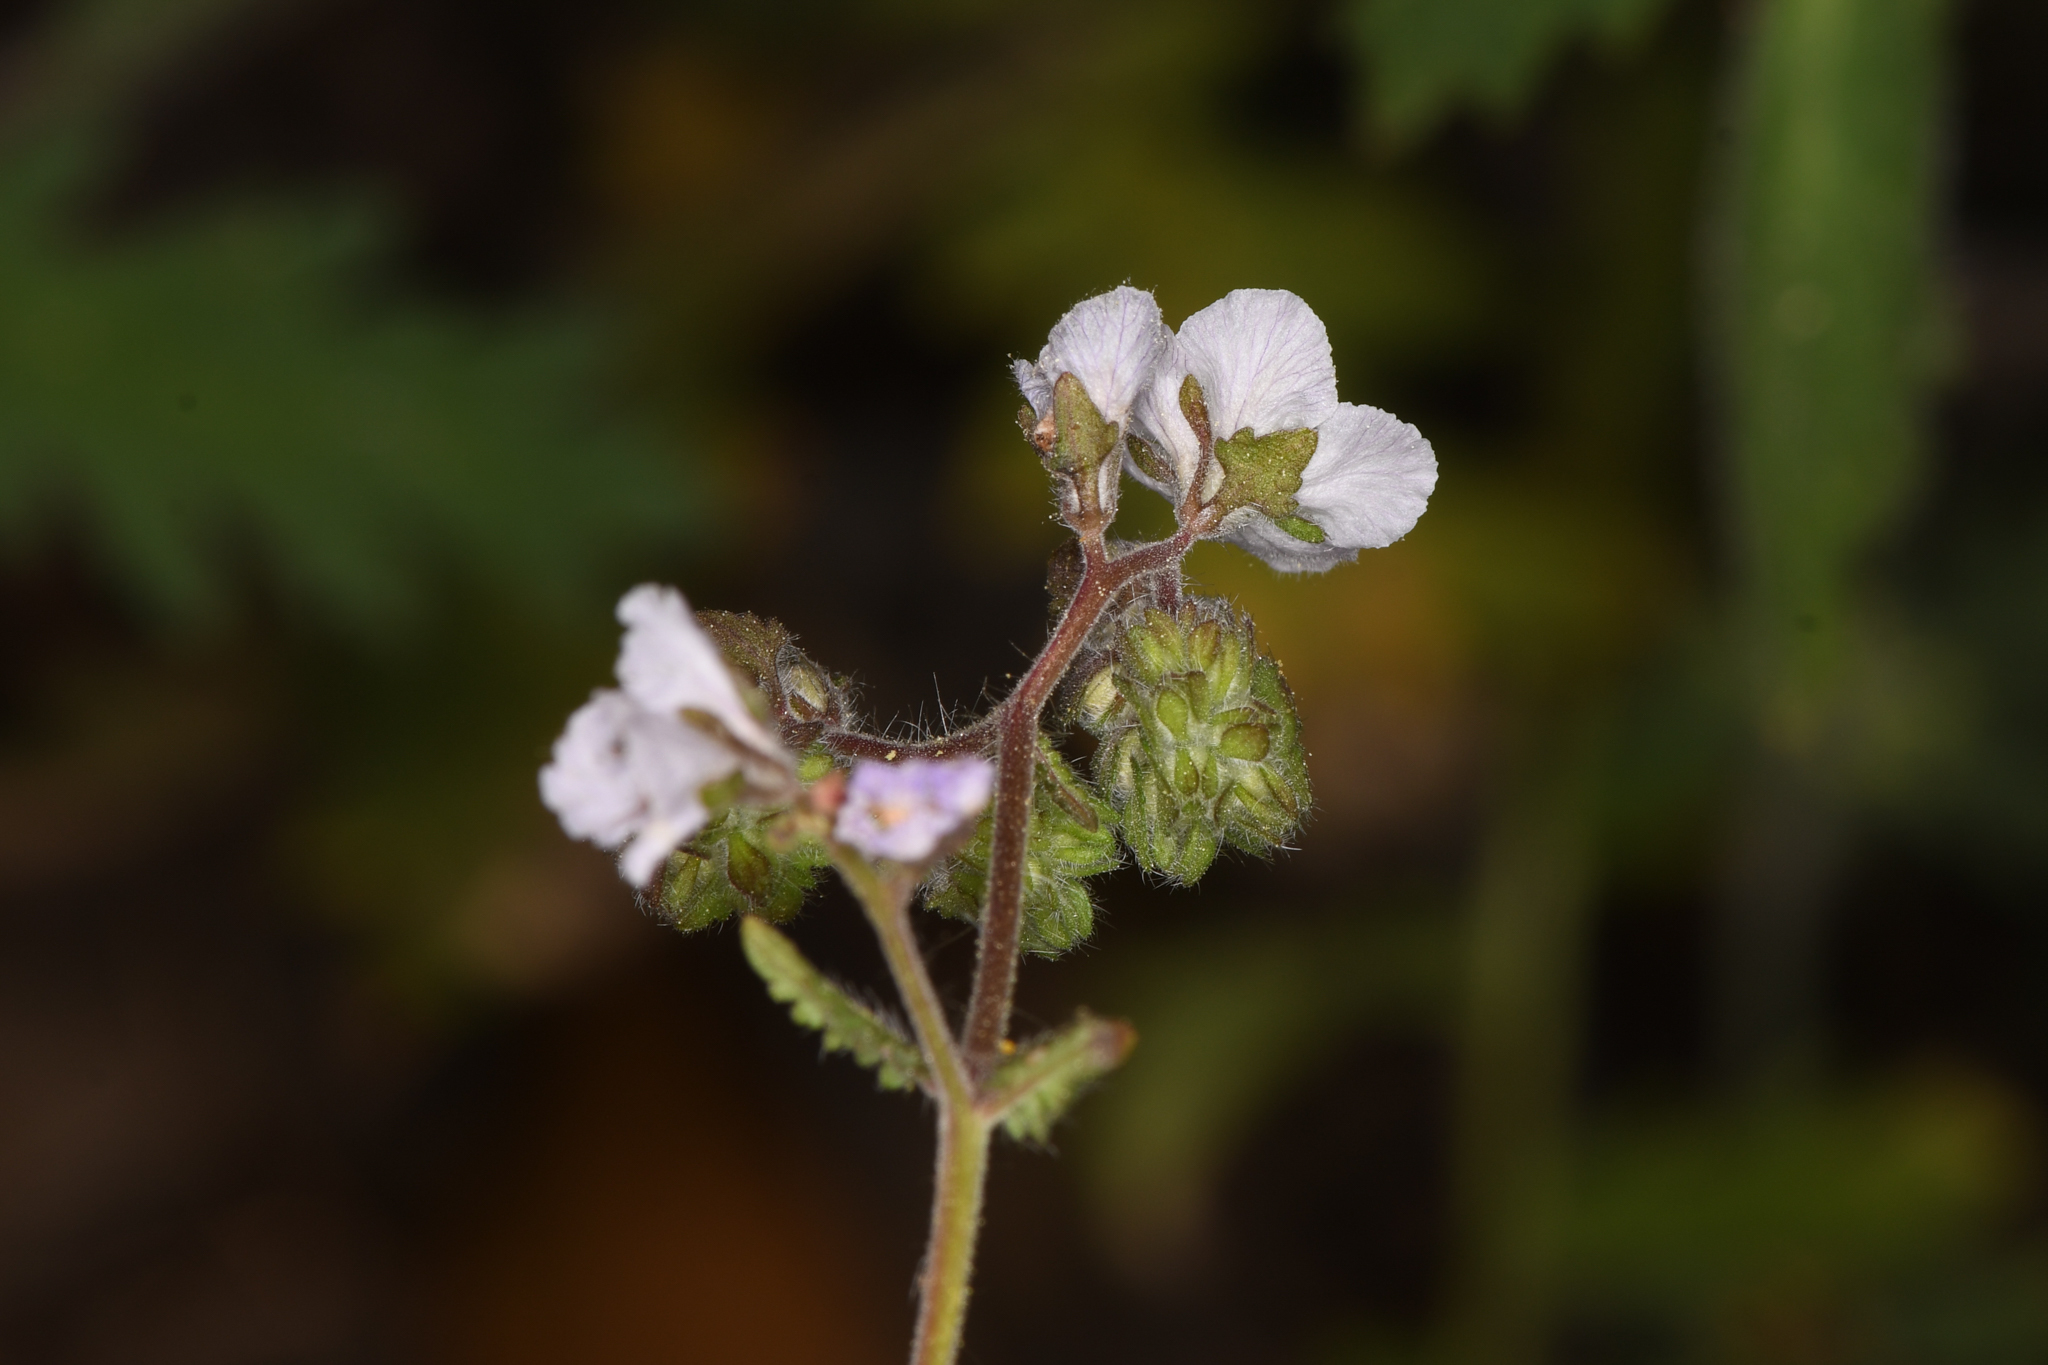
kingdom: Plantae
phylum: Tracheophyta
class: Magnoliopsida
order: Boraginales
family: Hydrophyllaceae
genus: Phacelia
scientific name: Phacelia platyloba
